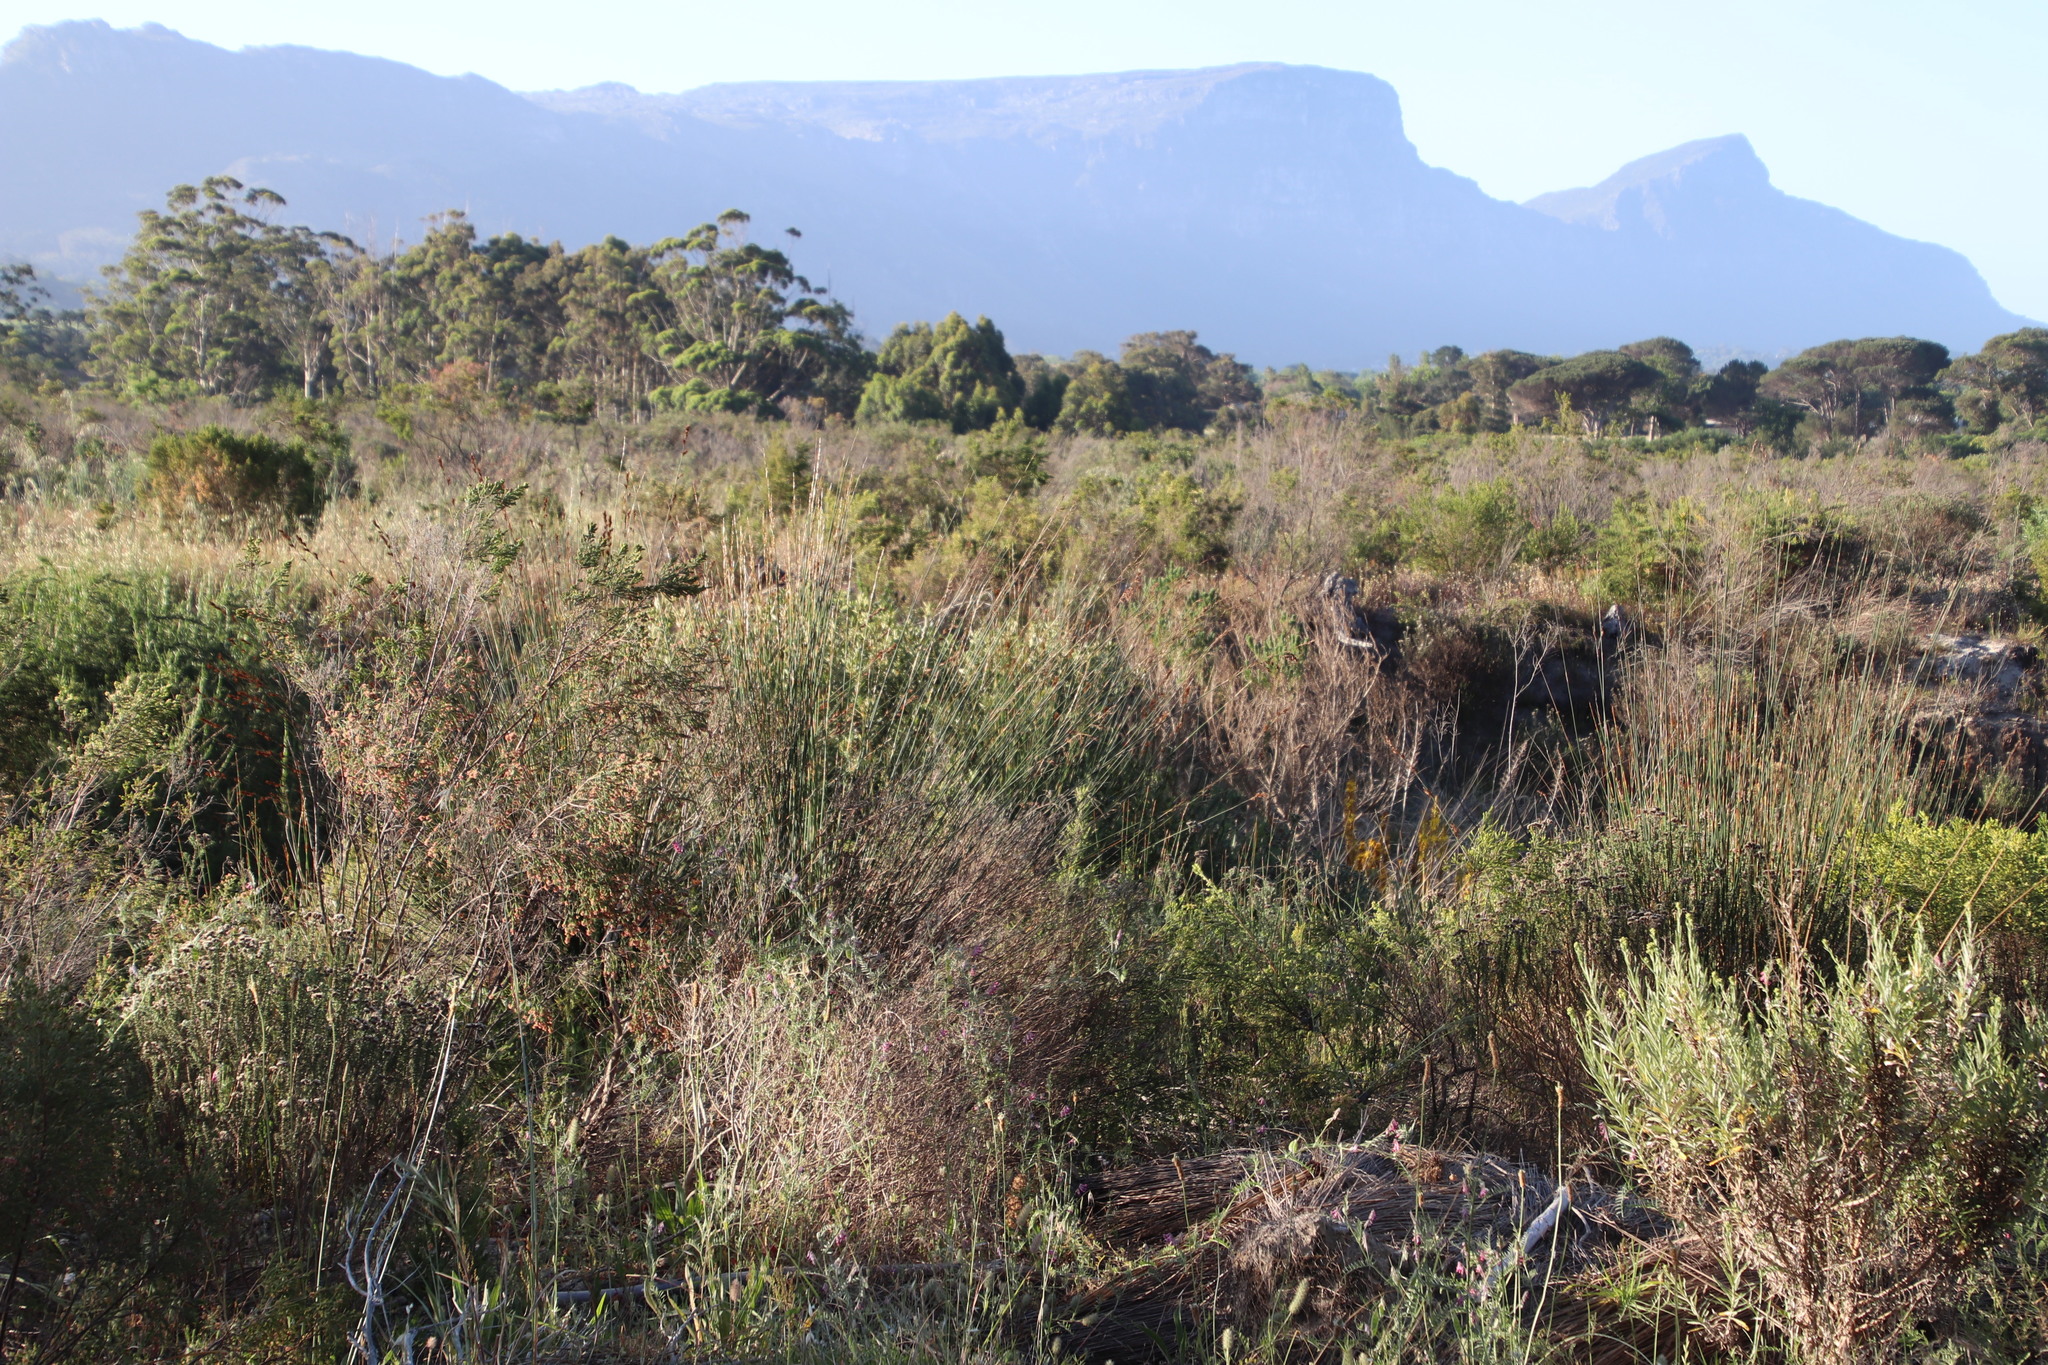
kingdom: Plantae
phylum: Tracheophyta
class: Liliopsida
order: Poales
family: Restionaceae
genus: Thamnochortus
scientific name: Thamnochortus insignis
